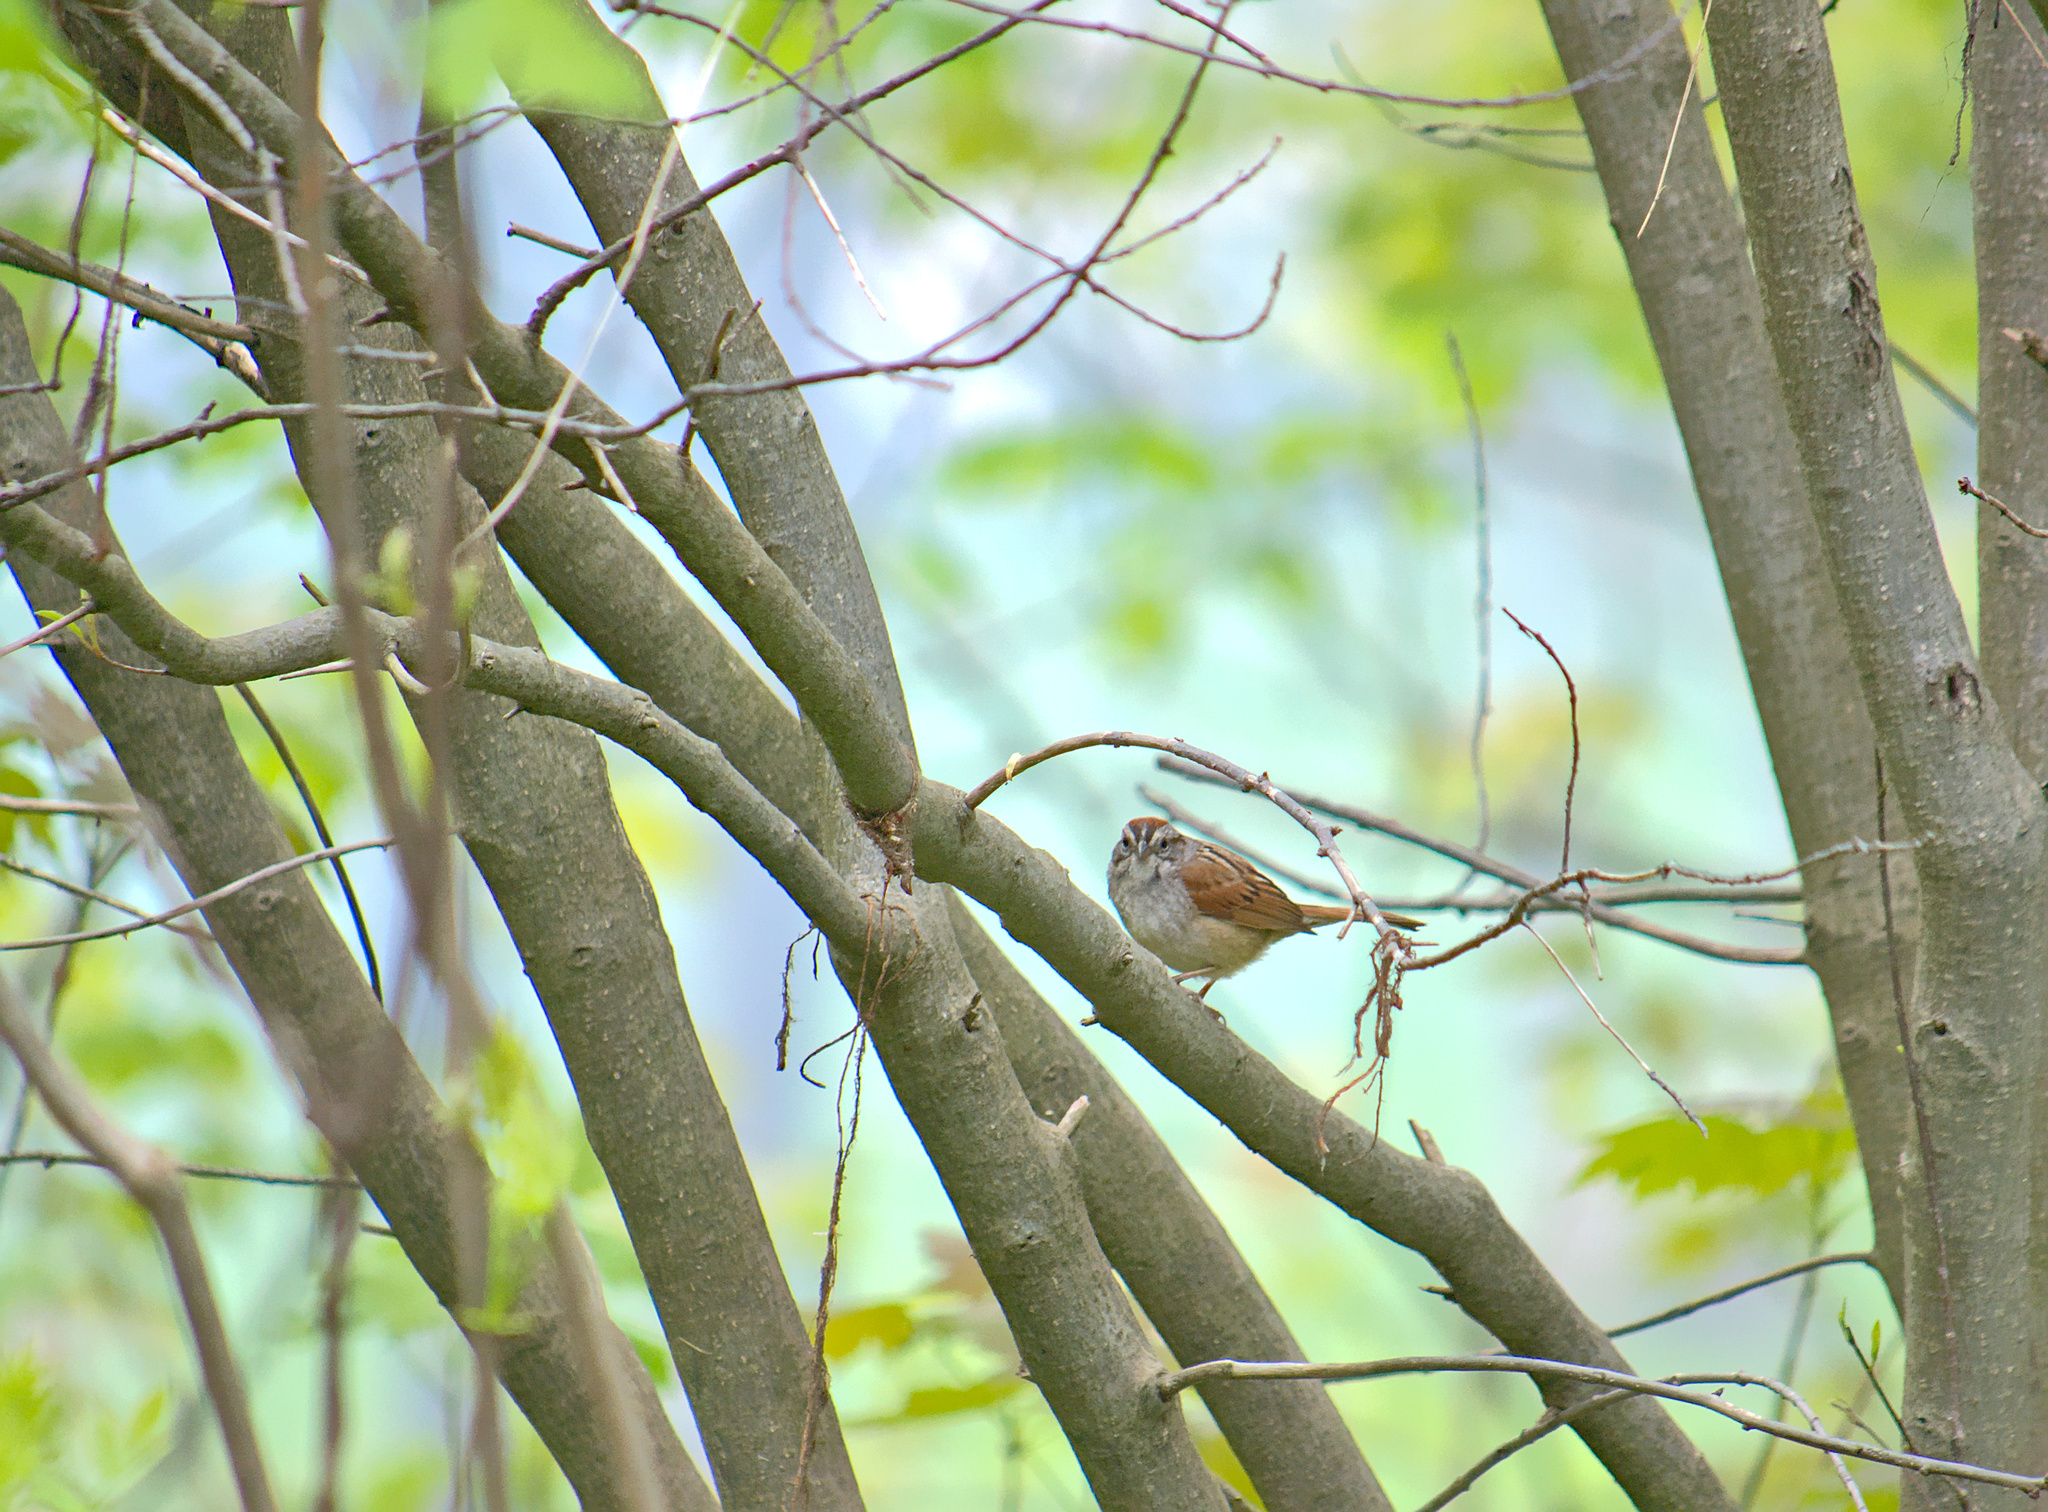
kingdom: Animalia
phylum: Chordata
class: Aves
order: Passeriformes
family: Passerellidae
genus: Melospiza
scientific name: Melospiza georgiana
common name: Swamp sparrow
